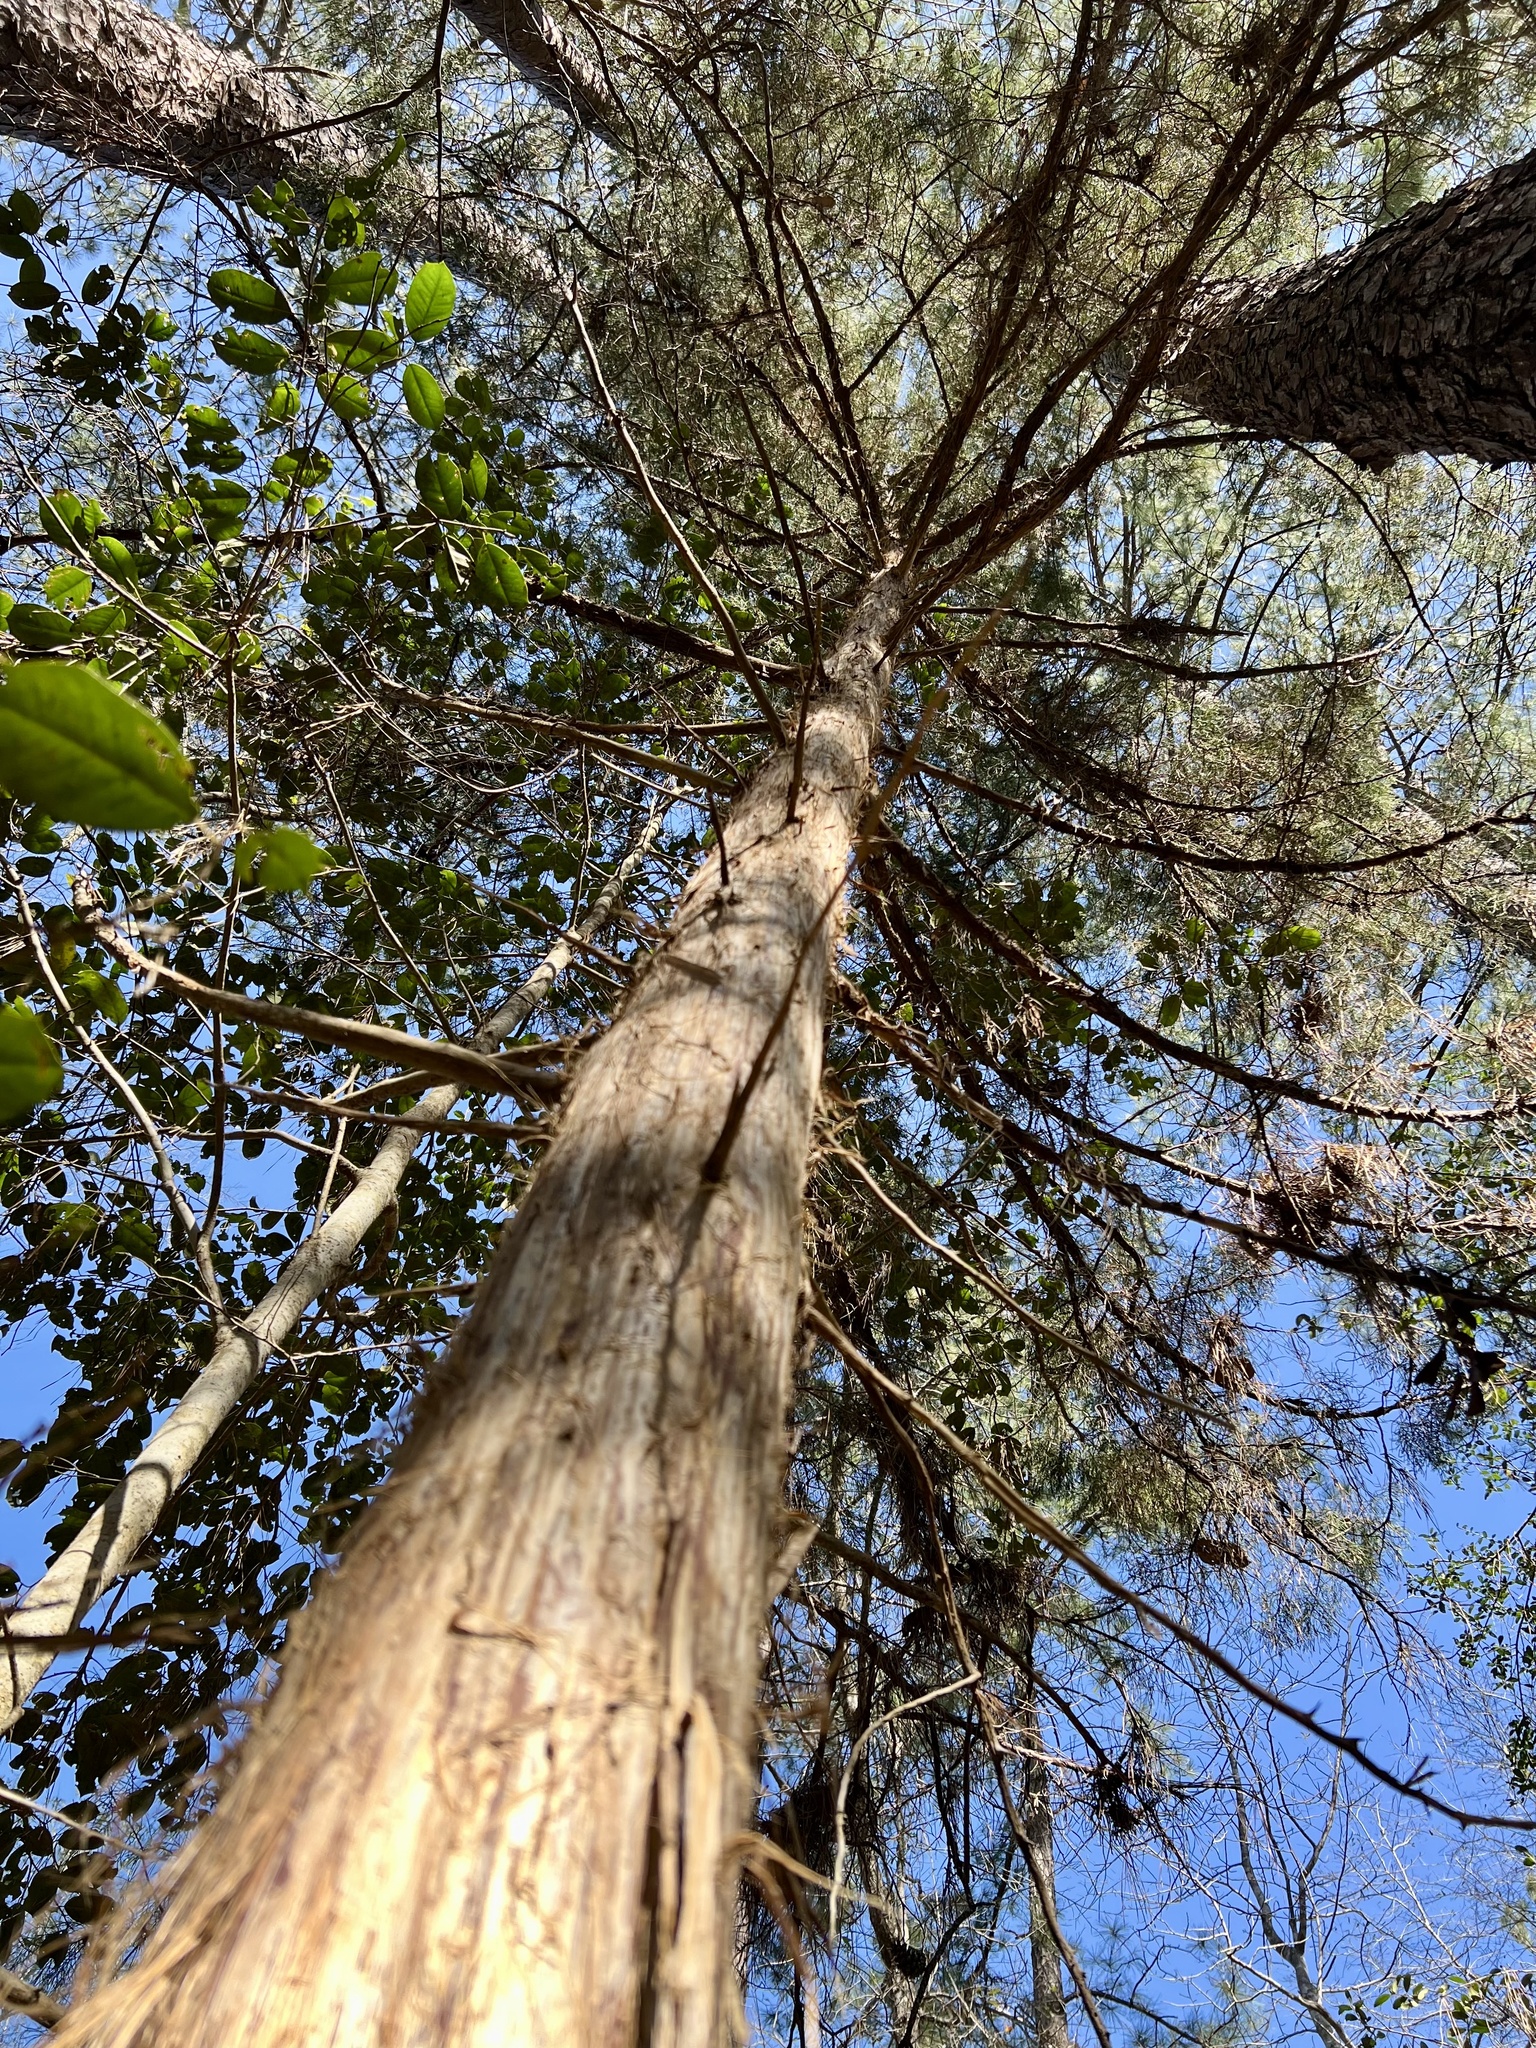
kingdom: Plantae
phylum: Tracheophyta
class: Pinopsida
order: Pinales
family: Cupressaceae
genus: Juniperus
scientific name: Juniperus virginiana
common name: Red juniper
